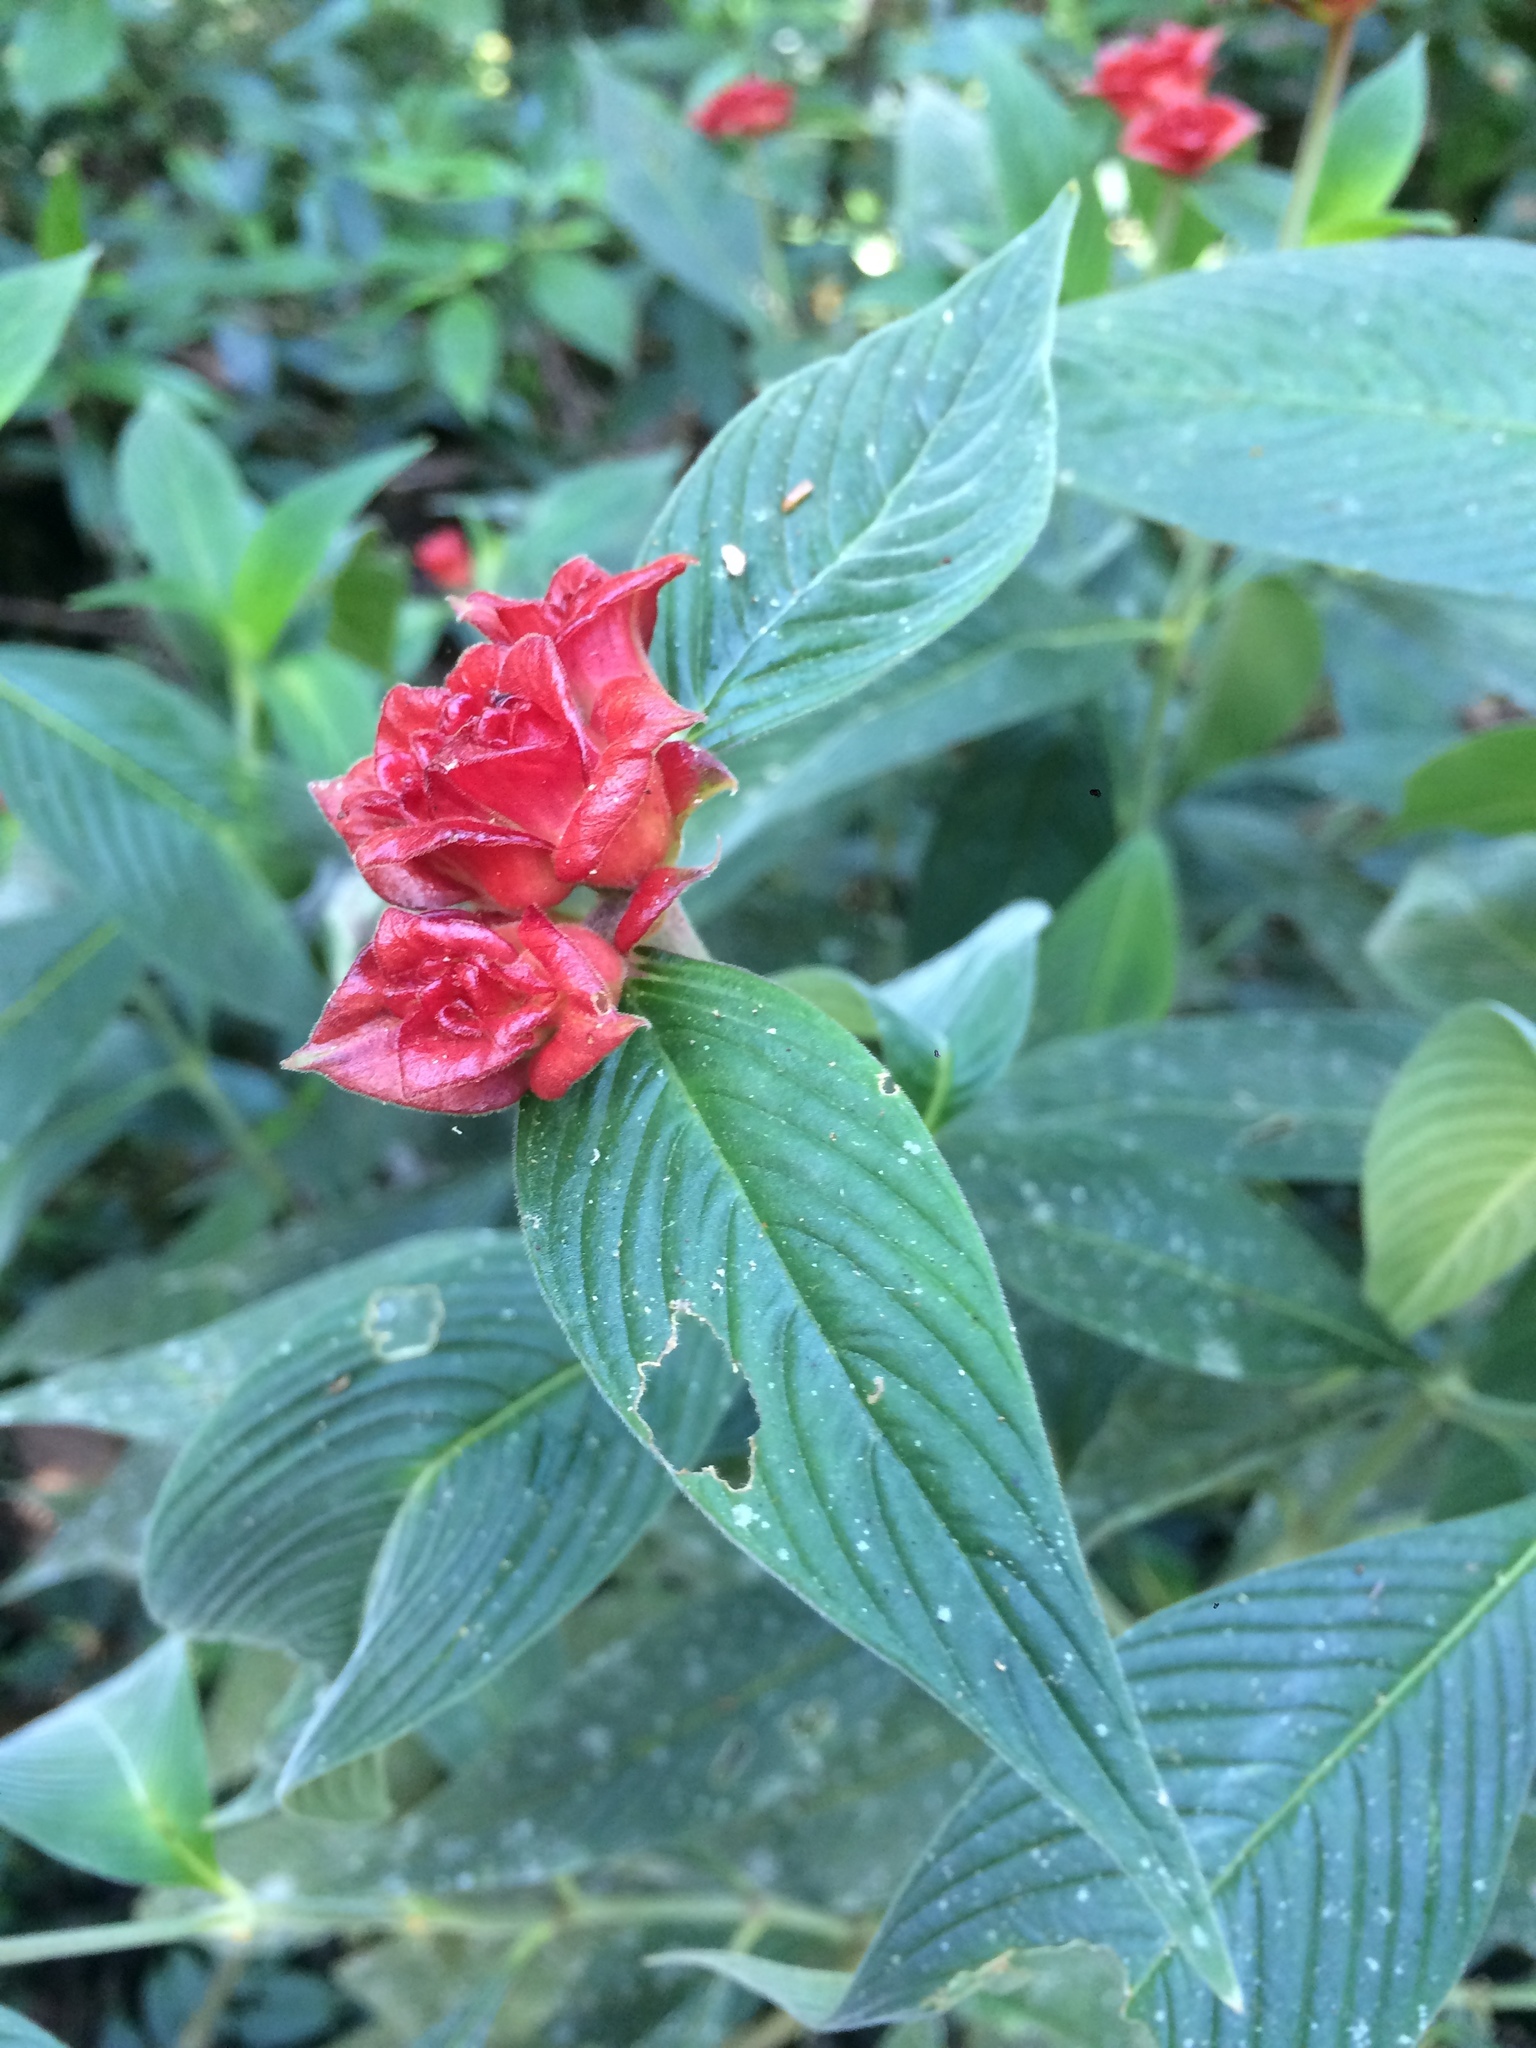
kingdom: Plantae
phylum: Tracheophyta
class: Magnoliopsida
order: Gentianales
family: Rubiaceae
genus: Palicourea
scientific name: Palicourea ruelliifolia
